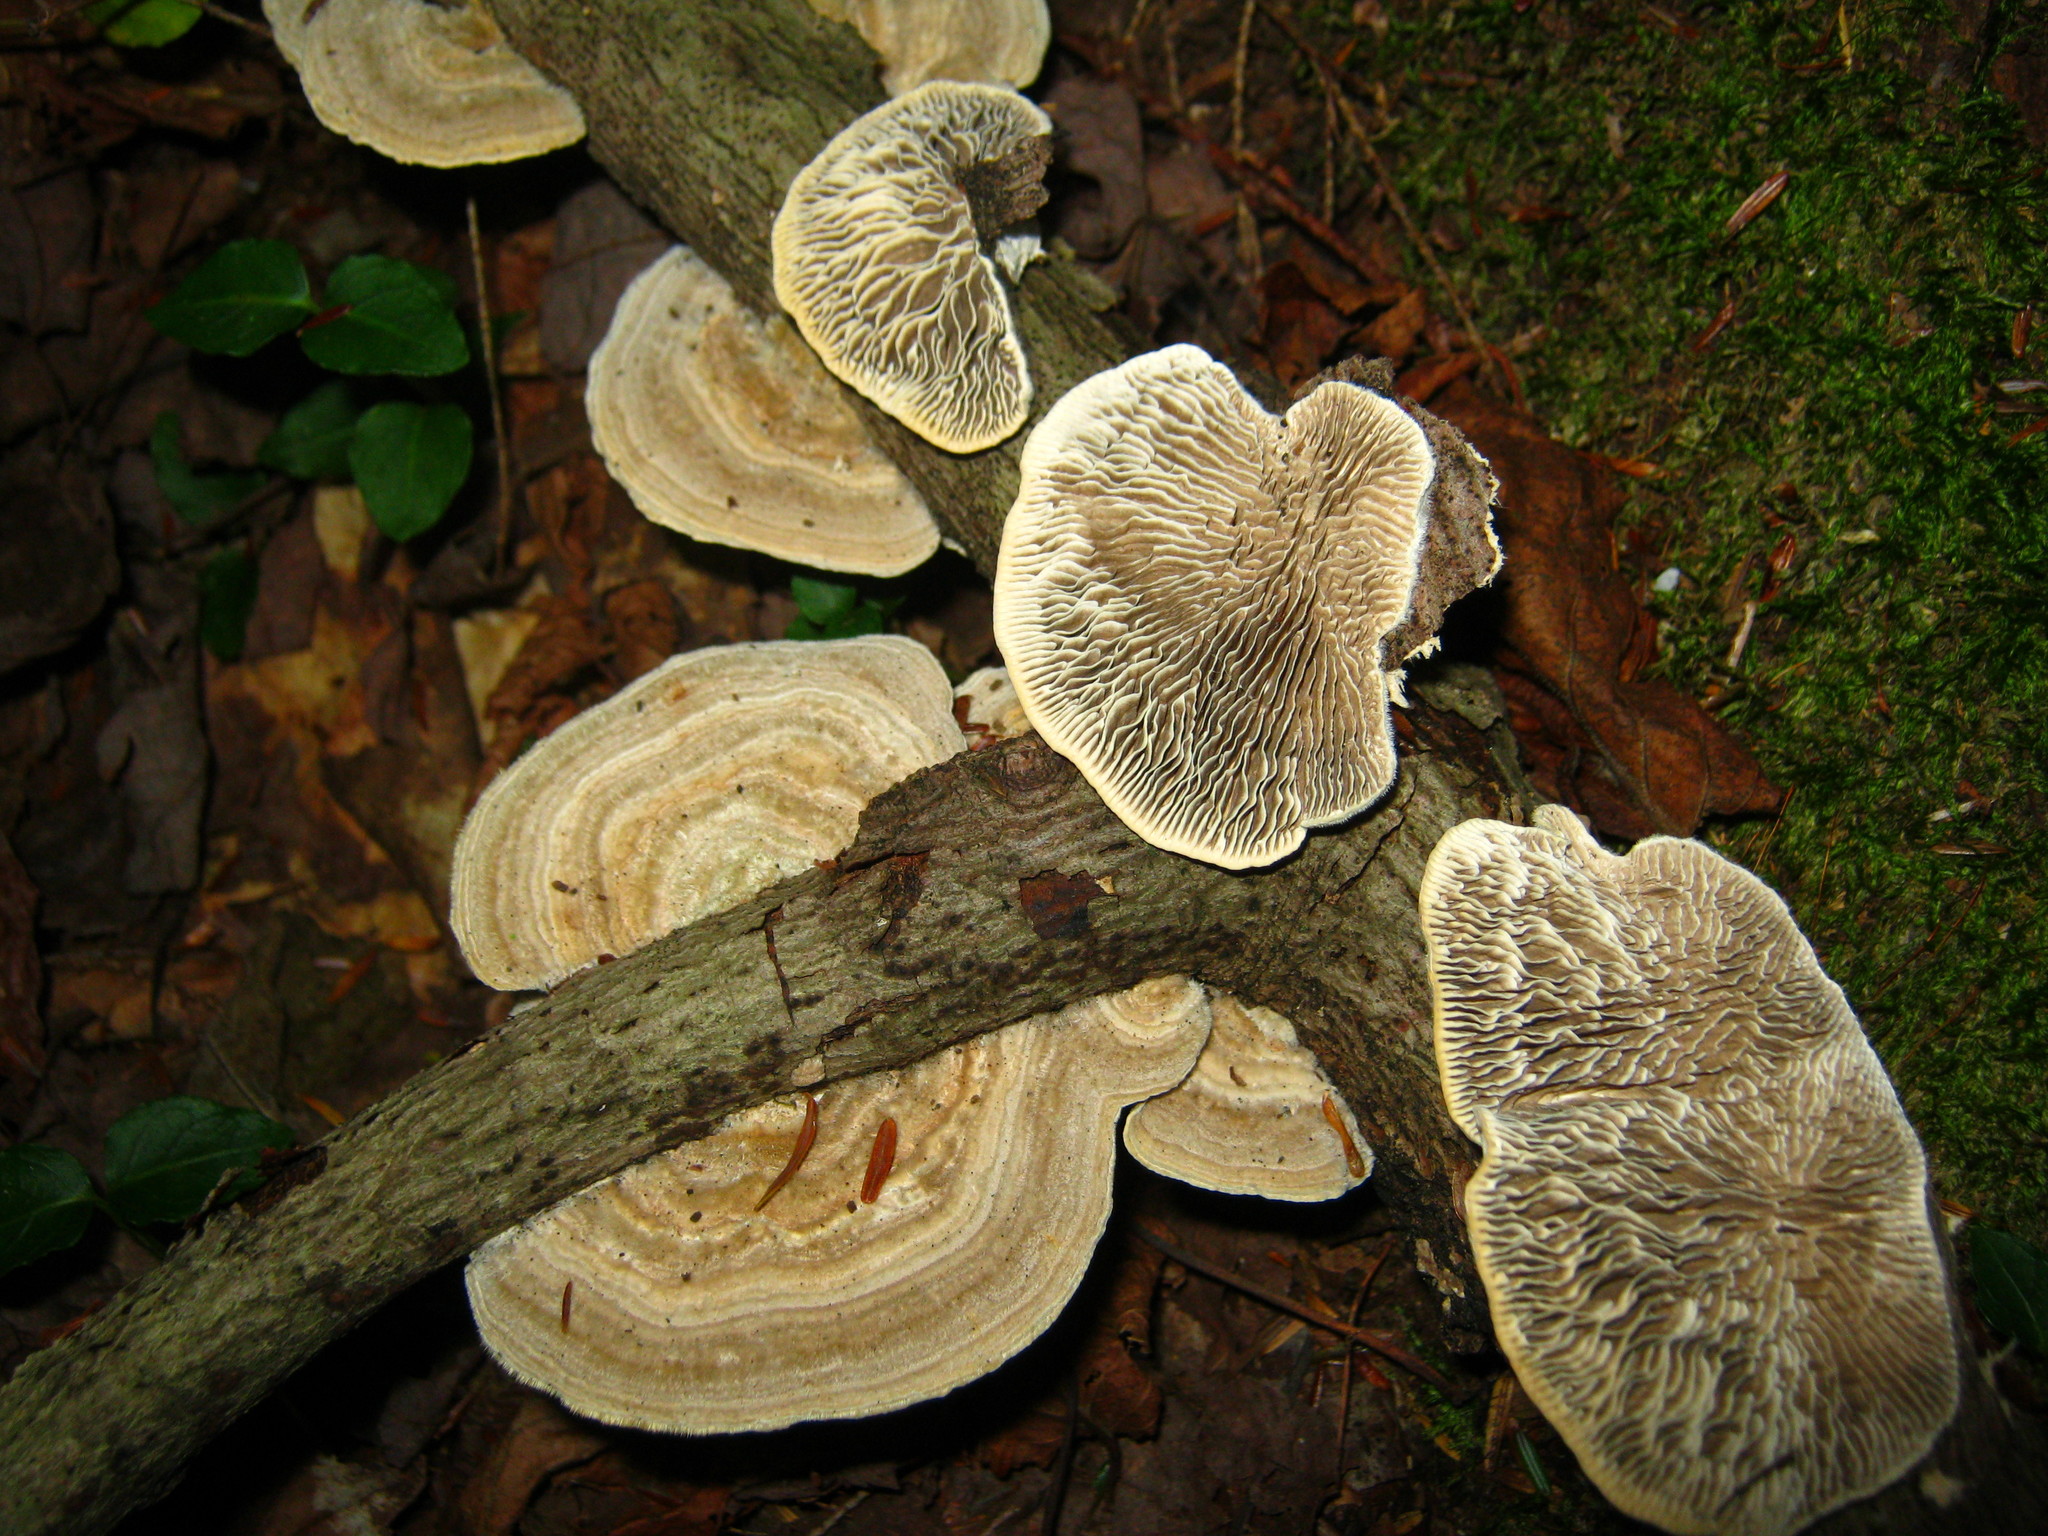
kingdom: Fungi
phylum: Basidiomycota
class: Agaricomycetes
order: Polyporales
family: Polyporaceae
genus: Daedaleopsis
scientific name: Daedaleopsis confragosa
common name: Blushing bracket
